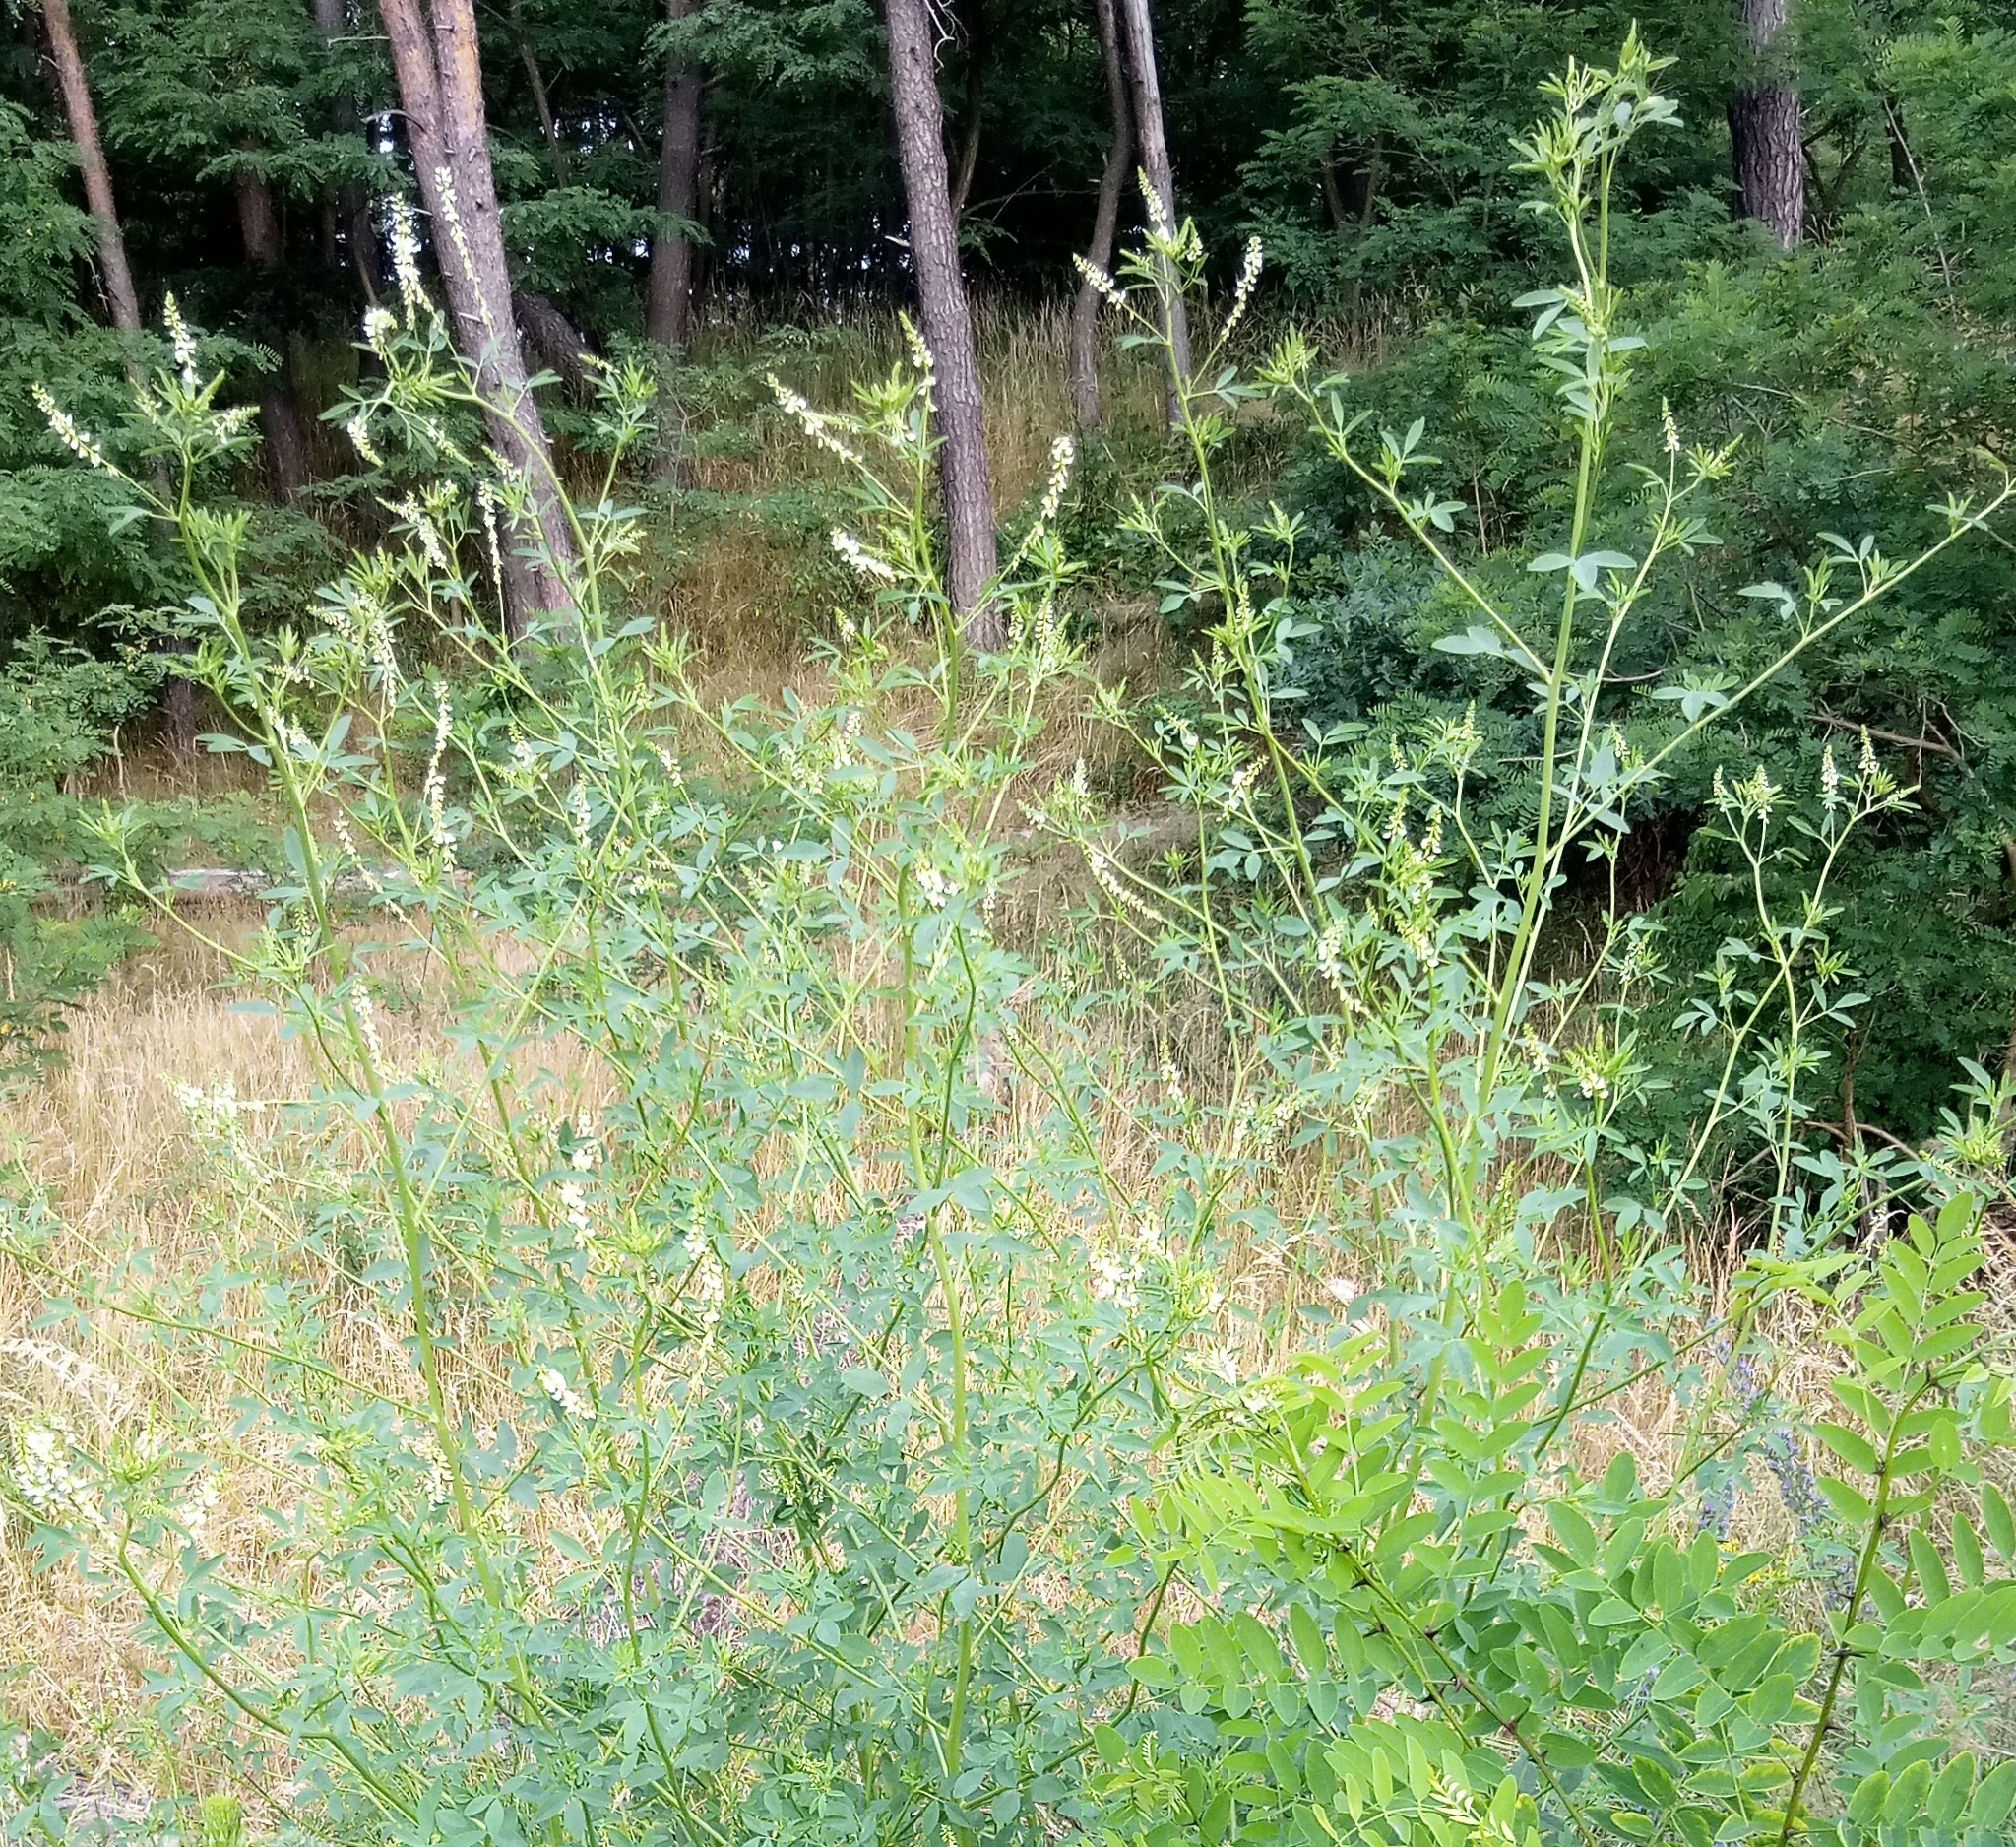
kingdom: Plantae
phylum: Tracheophyta
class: Magnoliopsida
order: Fabales
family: Fabaceae
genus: Melilotus
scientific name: Melilotus albus
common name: White melilot
